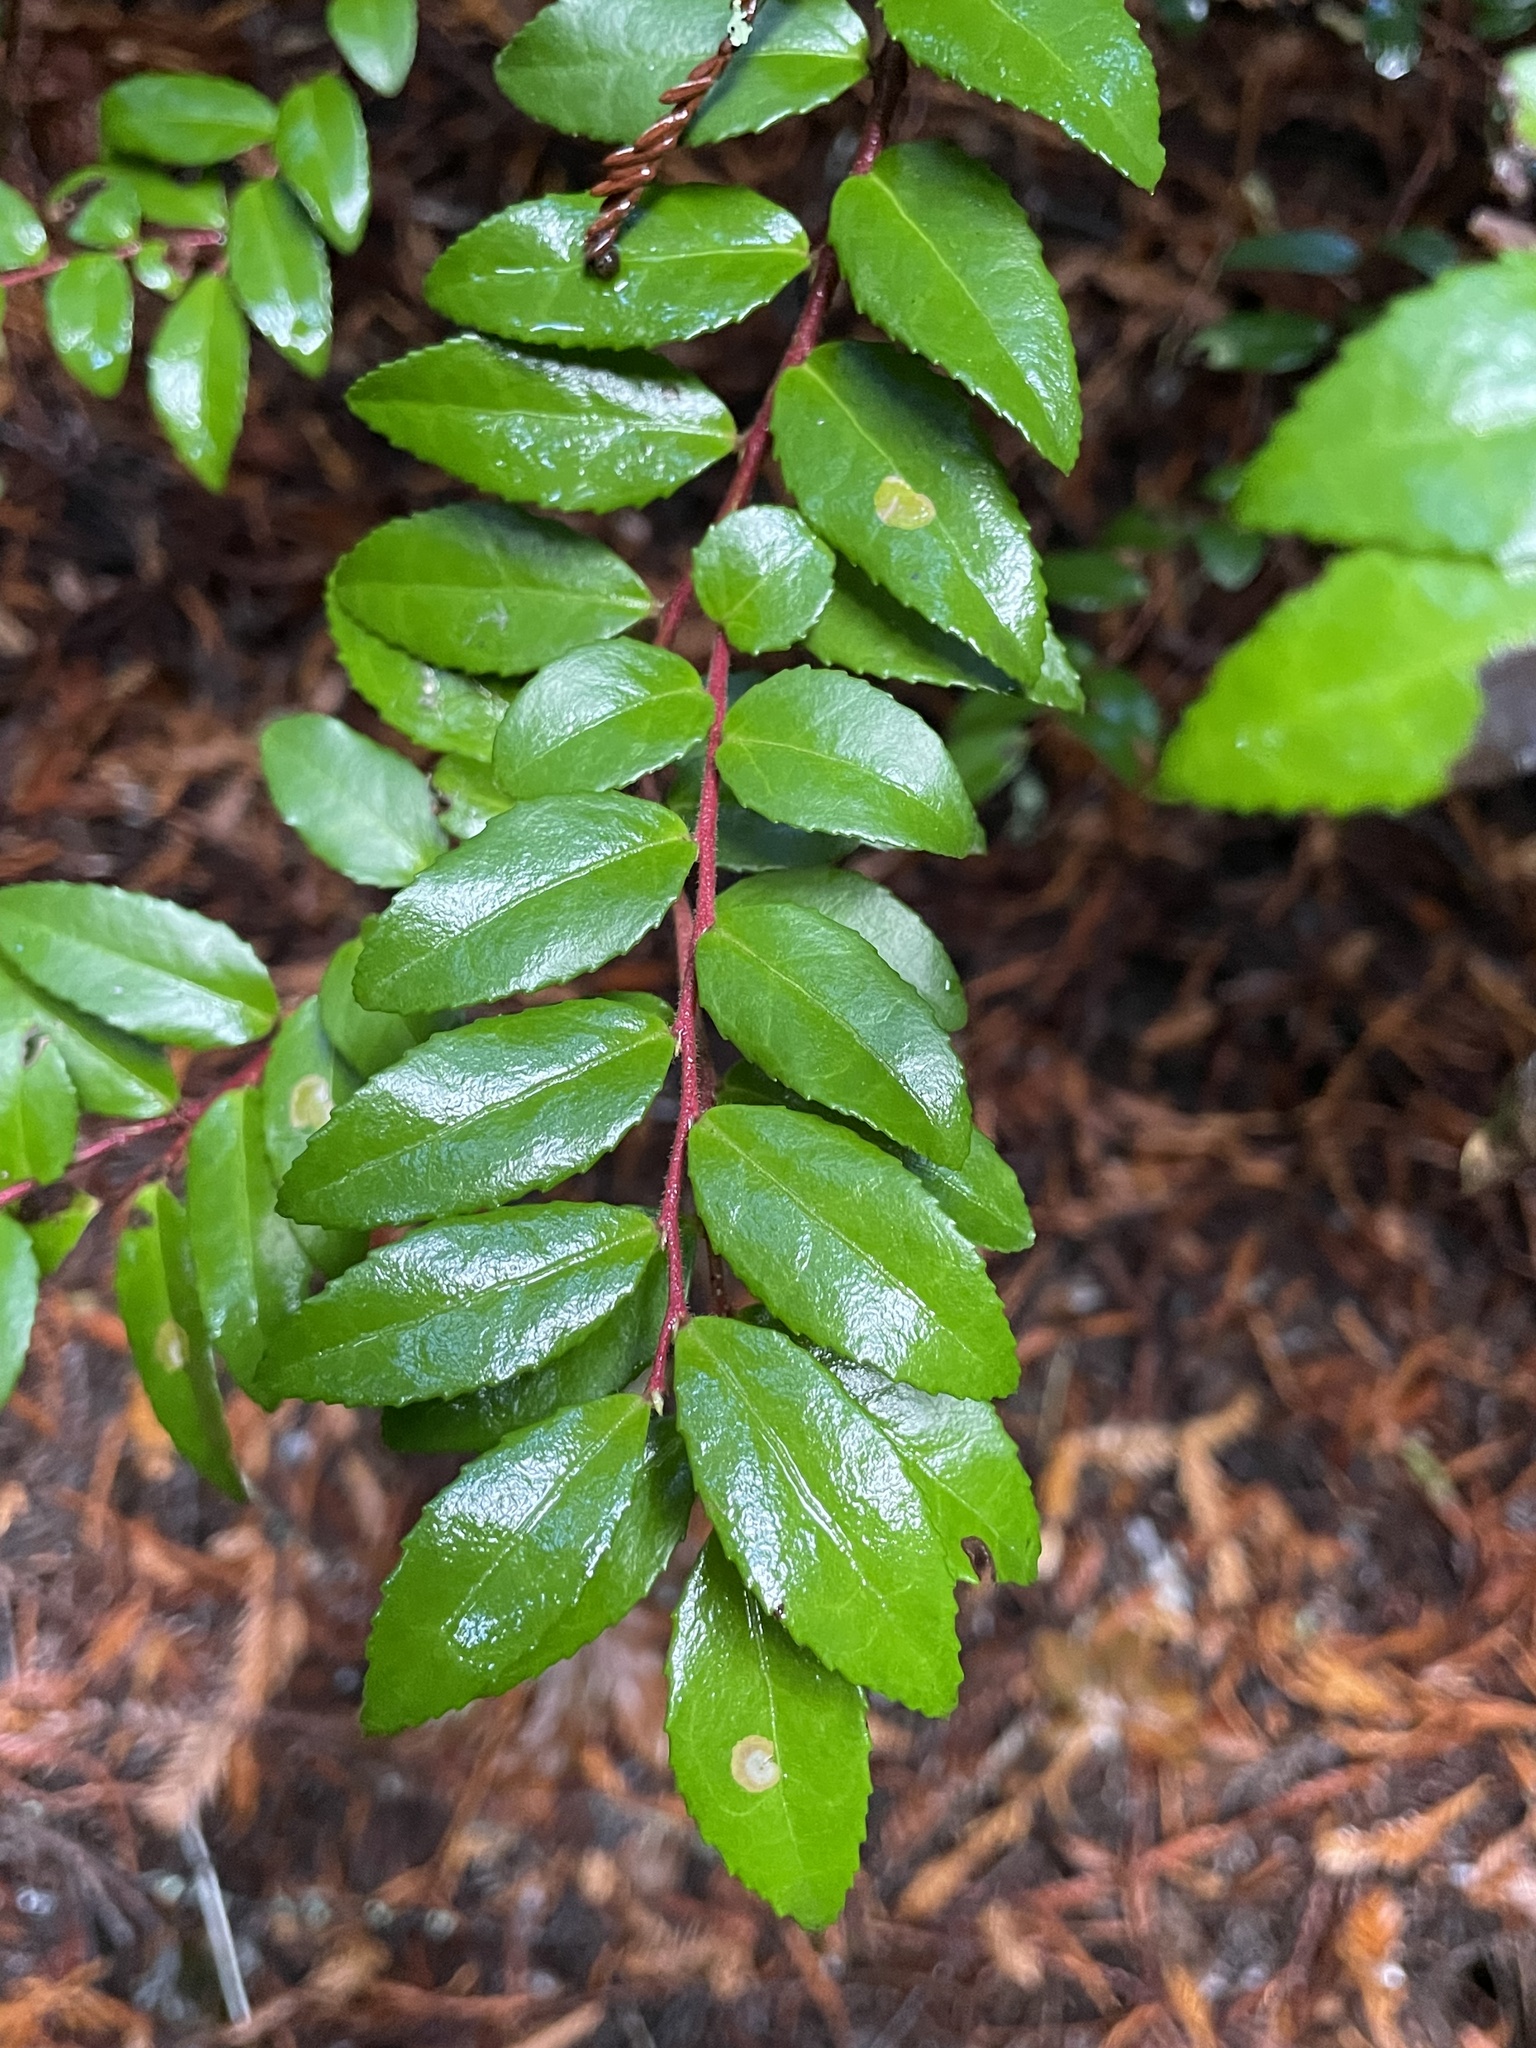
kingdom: Plantae
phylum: Tracheophyta
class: Magnoliopsida
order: Ericales
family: Ericaceae
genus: Vaccinium
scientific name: Vaccinium ovatum
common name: California-huckleberry
